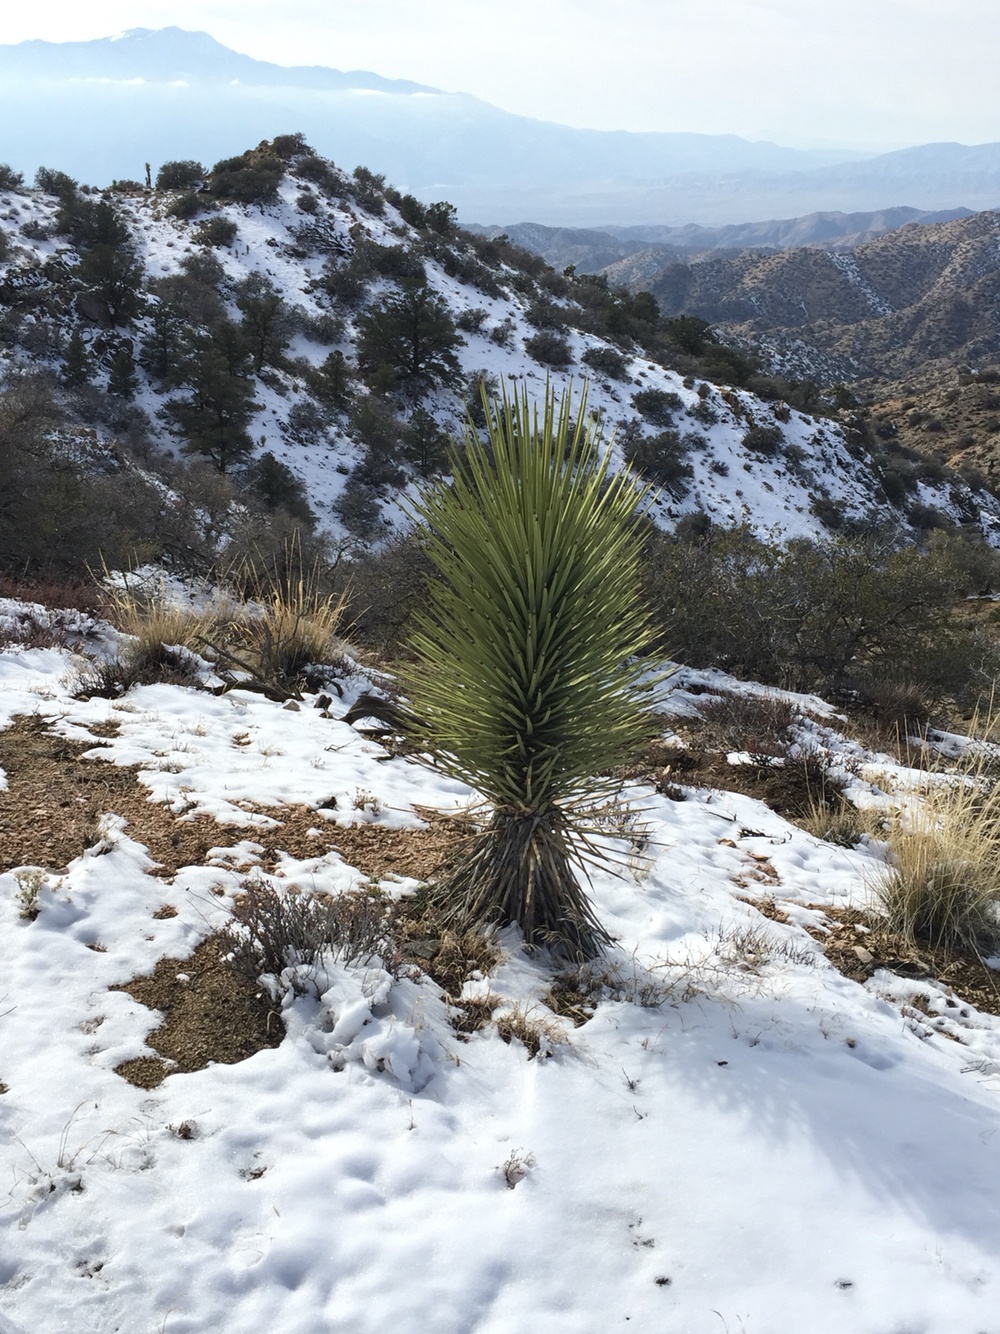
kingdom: Plantae
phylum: Tracheophyta
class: Liliopsida
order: Asparagales
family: Asparagaceae
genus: Yucca
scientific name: Yucca brevifolia
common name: Joshua tree
